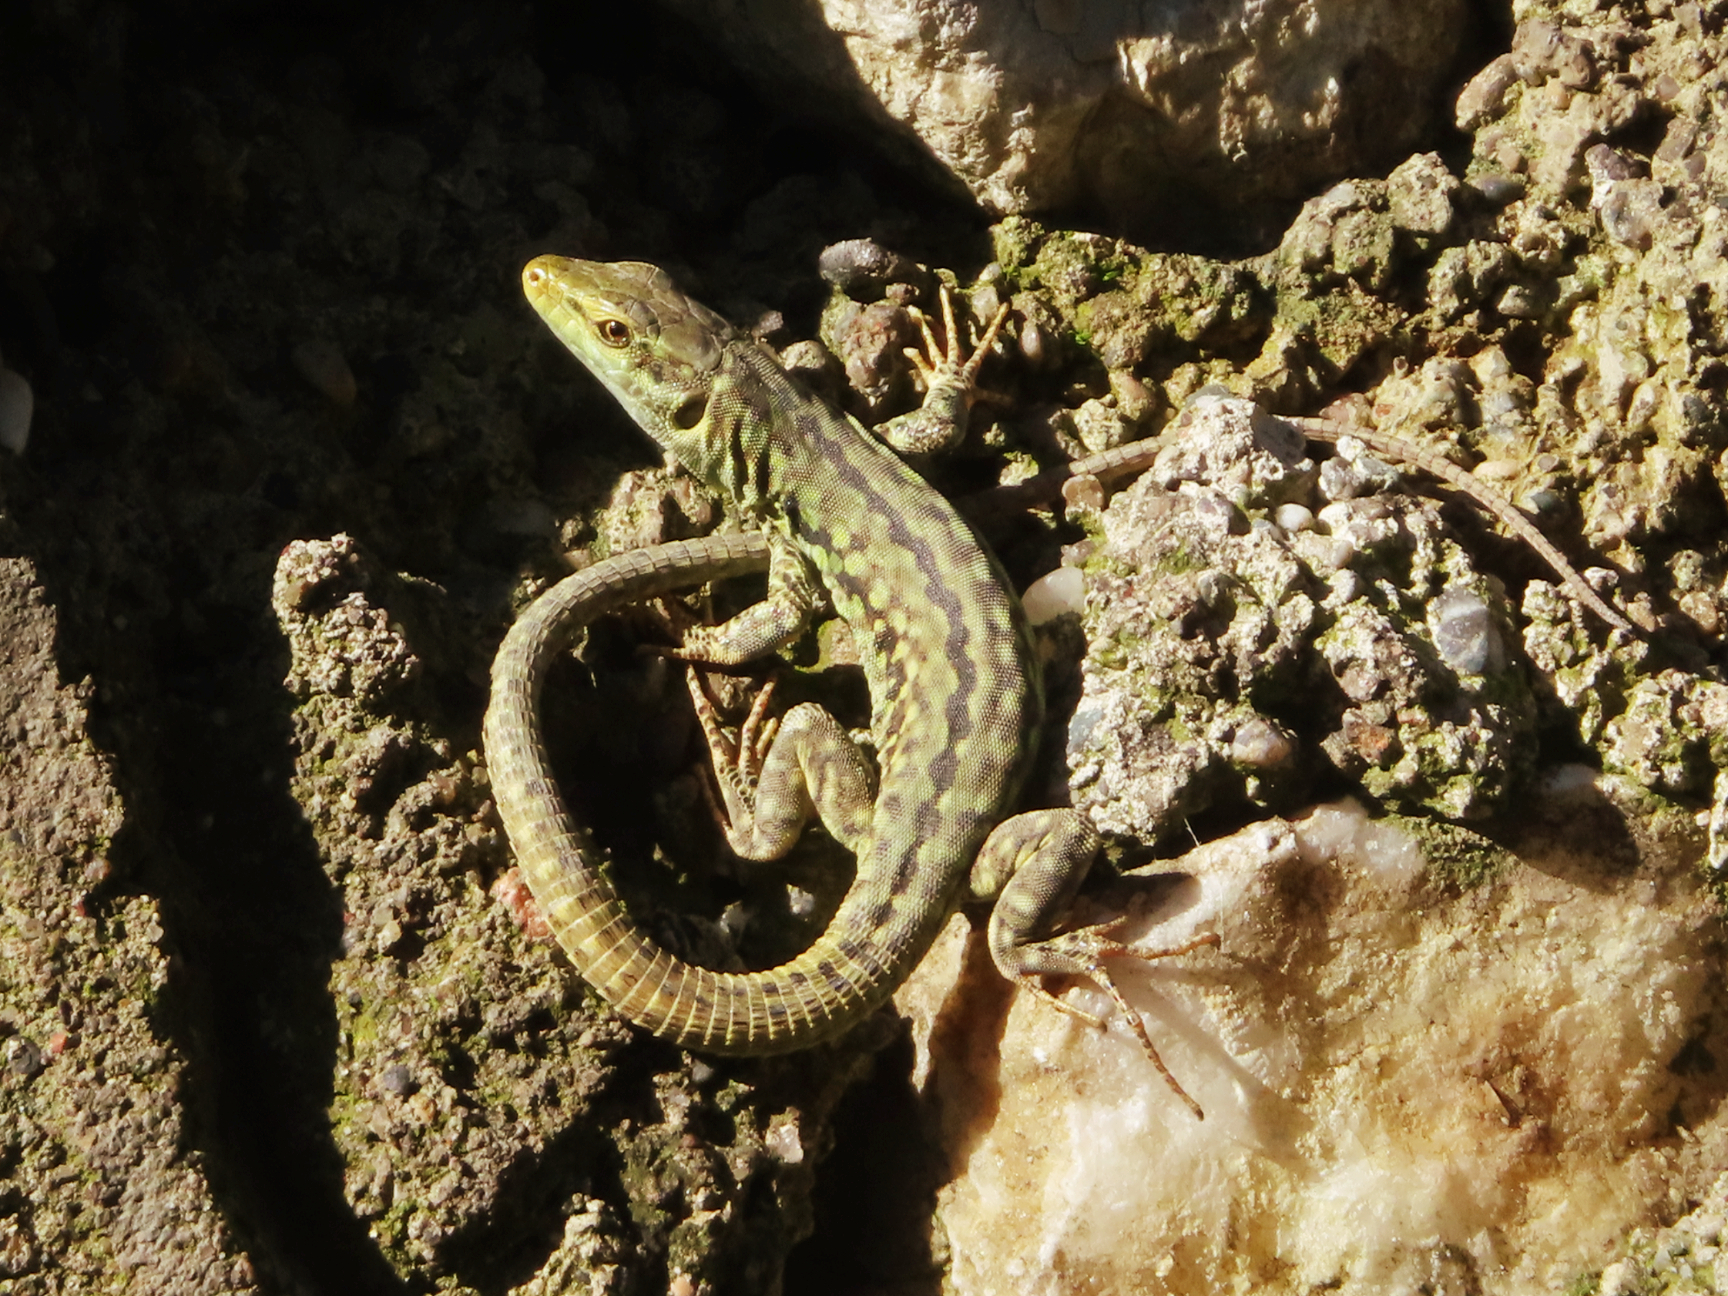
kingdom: Animalia
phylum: Chordata
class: Squamata
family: Lacertidae
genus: Podarcis
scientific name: Podarcis siculus
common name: Italian wall lizard
